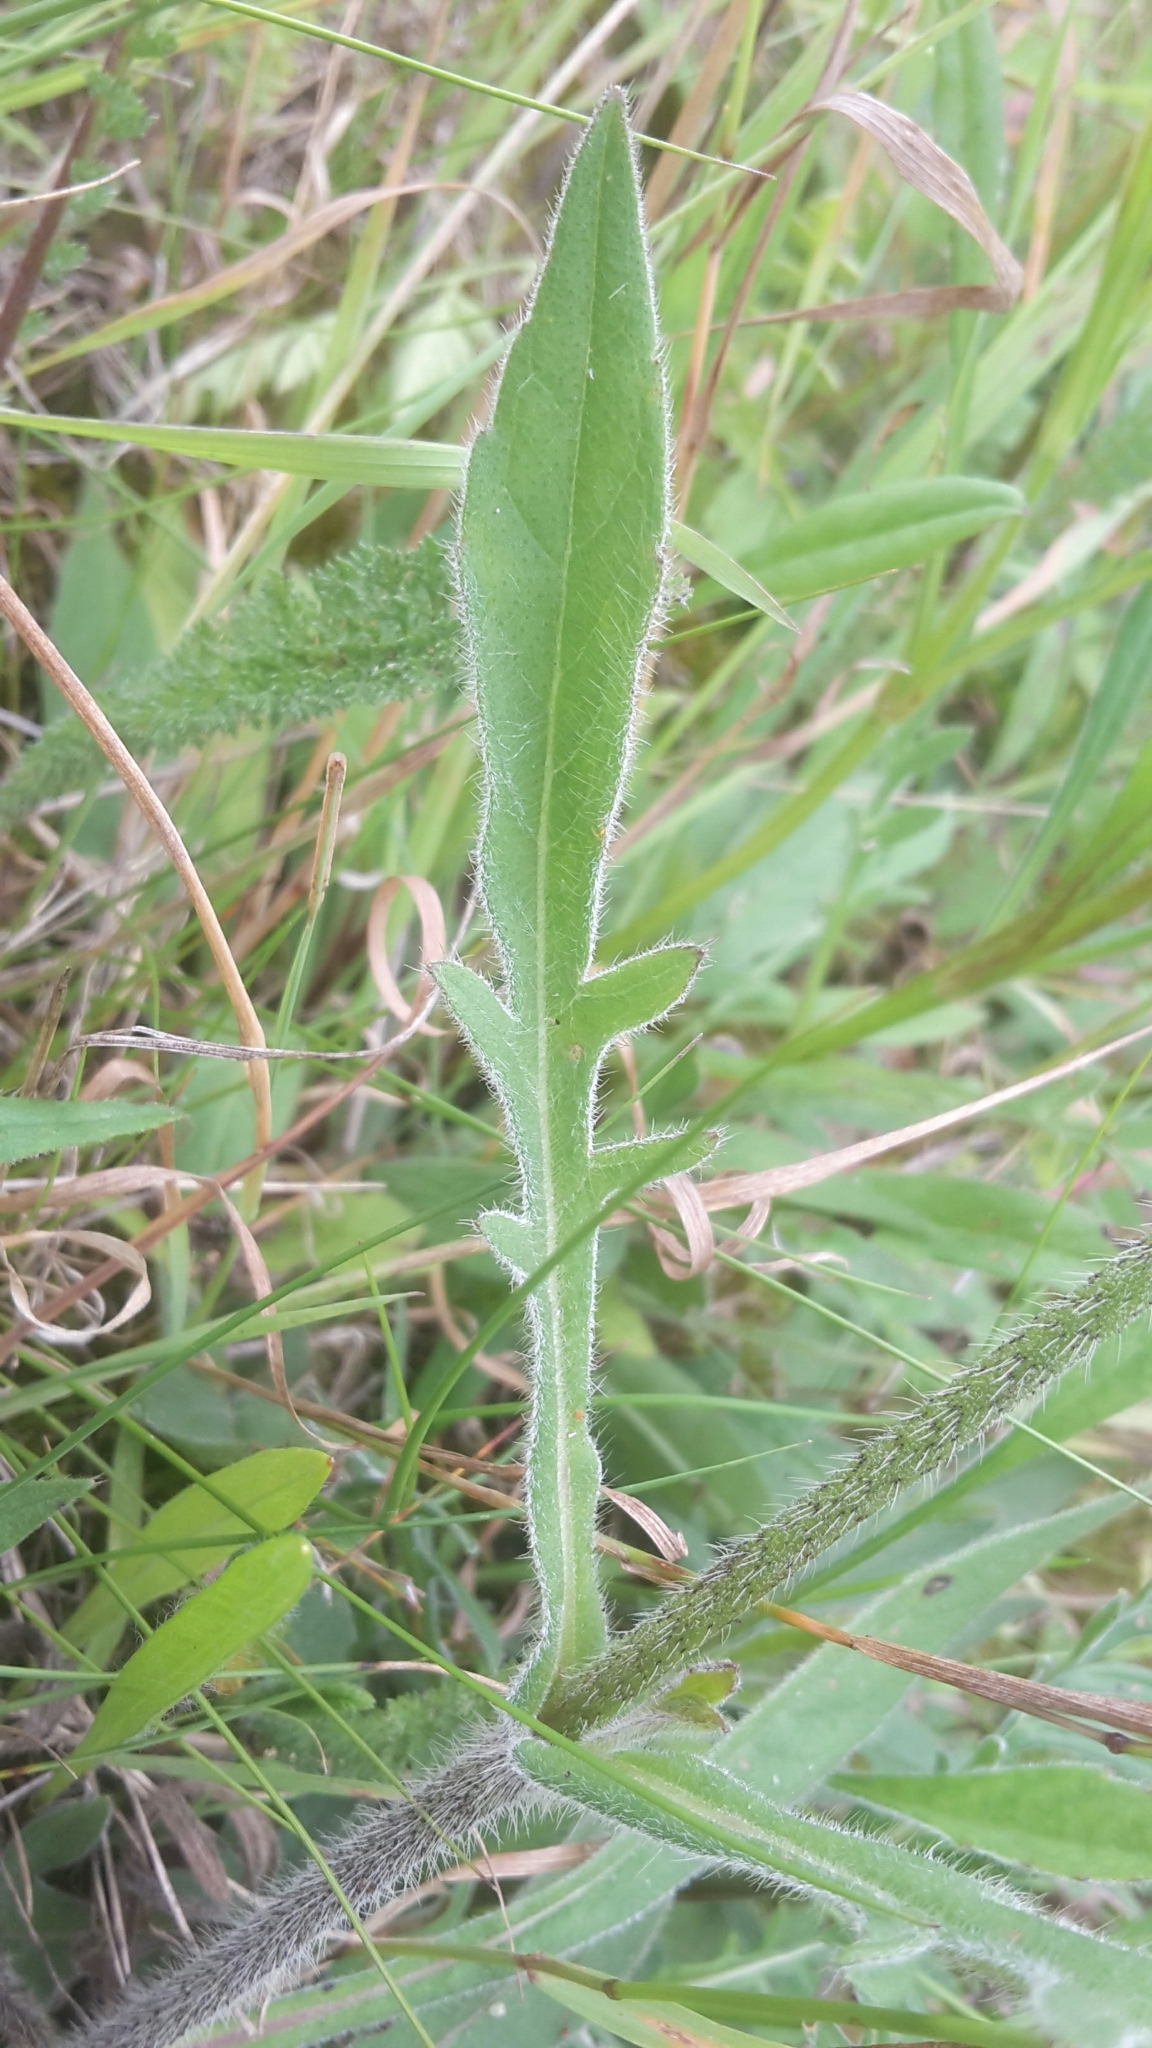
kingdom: Plantae
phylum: Tracheophyta
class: Magnoliopsida
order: Dipsacales
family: Caprifoliaceae
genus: Knautia
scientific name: Knautia arvensis
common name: Field scabiosa
